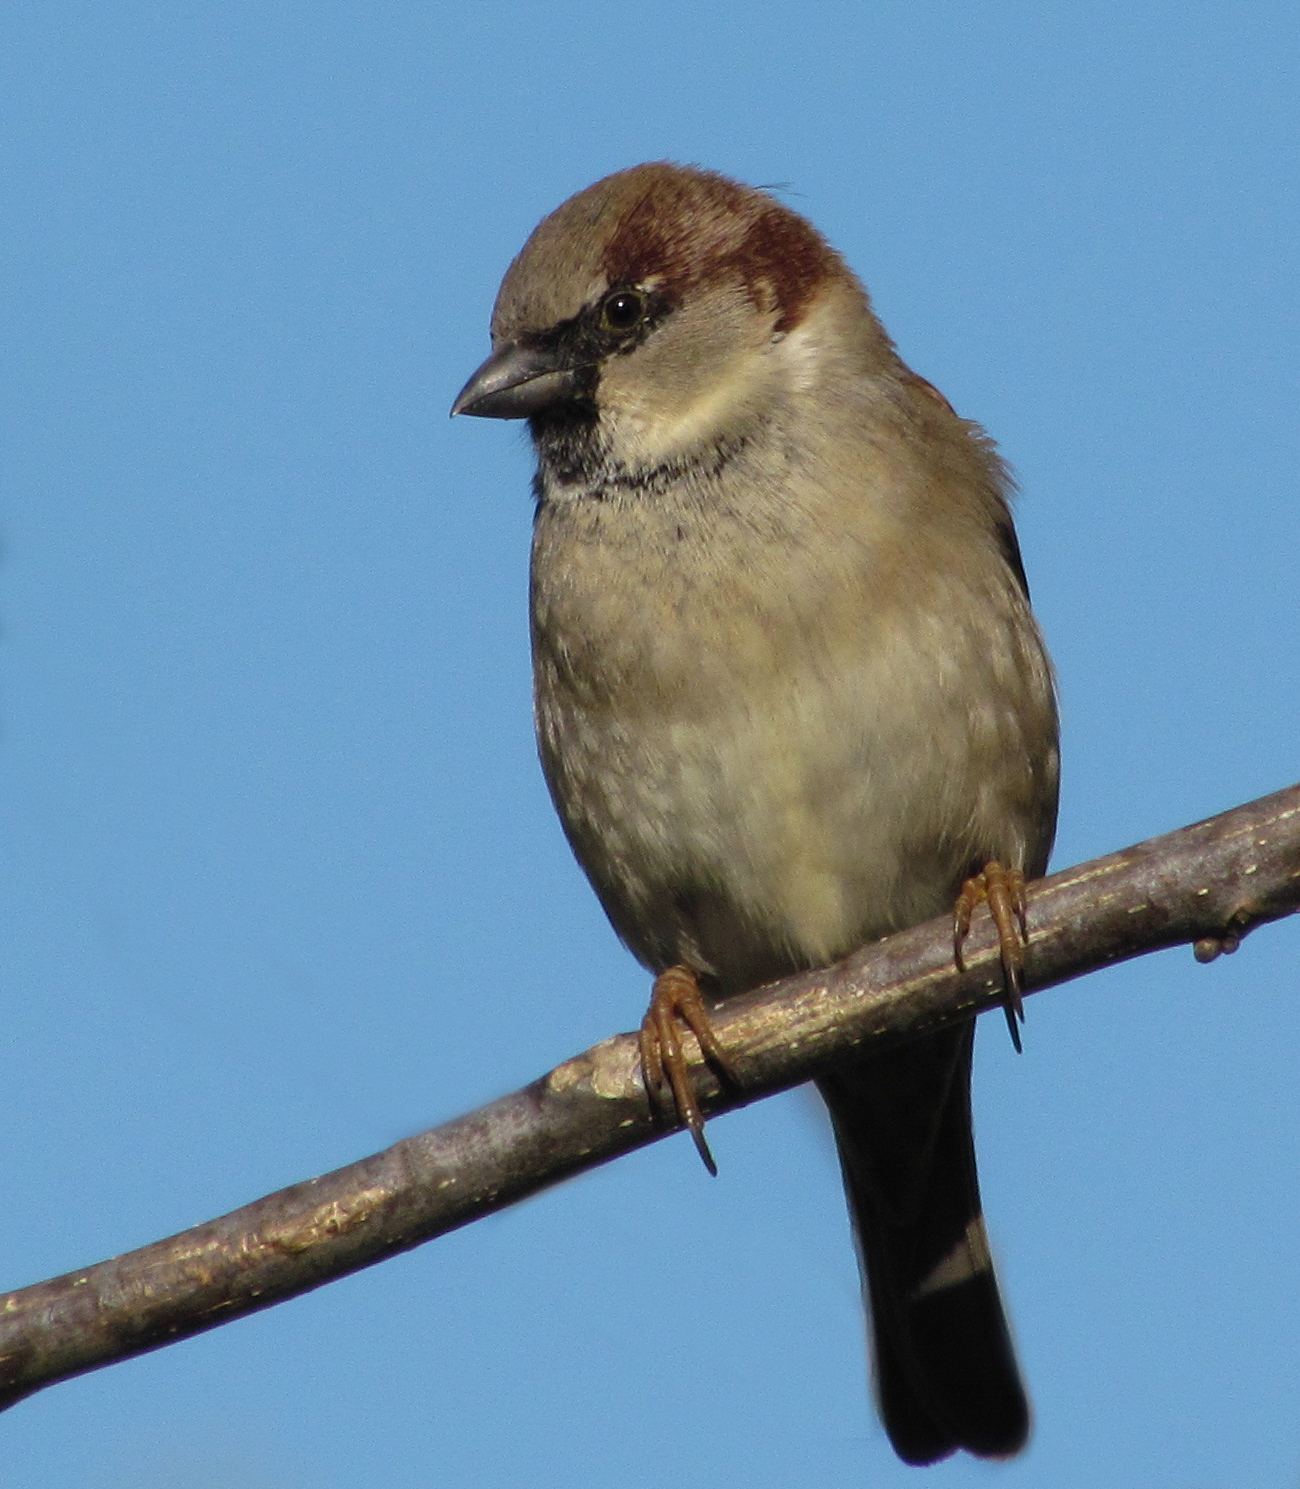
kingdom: Animalia
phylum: Chordata
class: Aves
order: Passeriformes
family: Passeridae
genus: Passer
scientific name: Passer domesticus
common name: House sparrow
